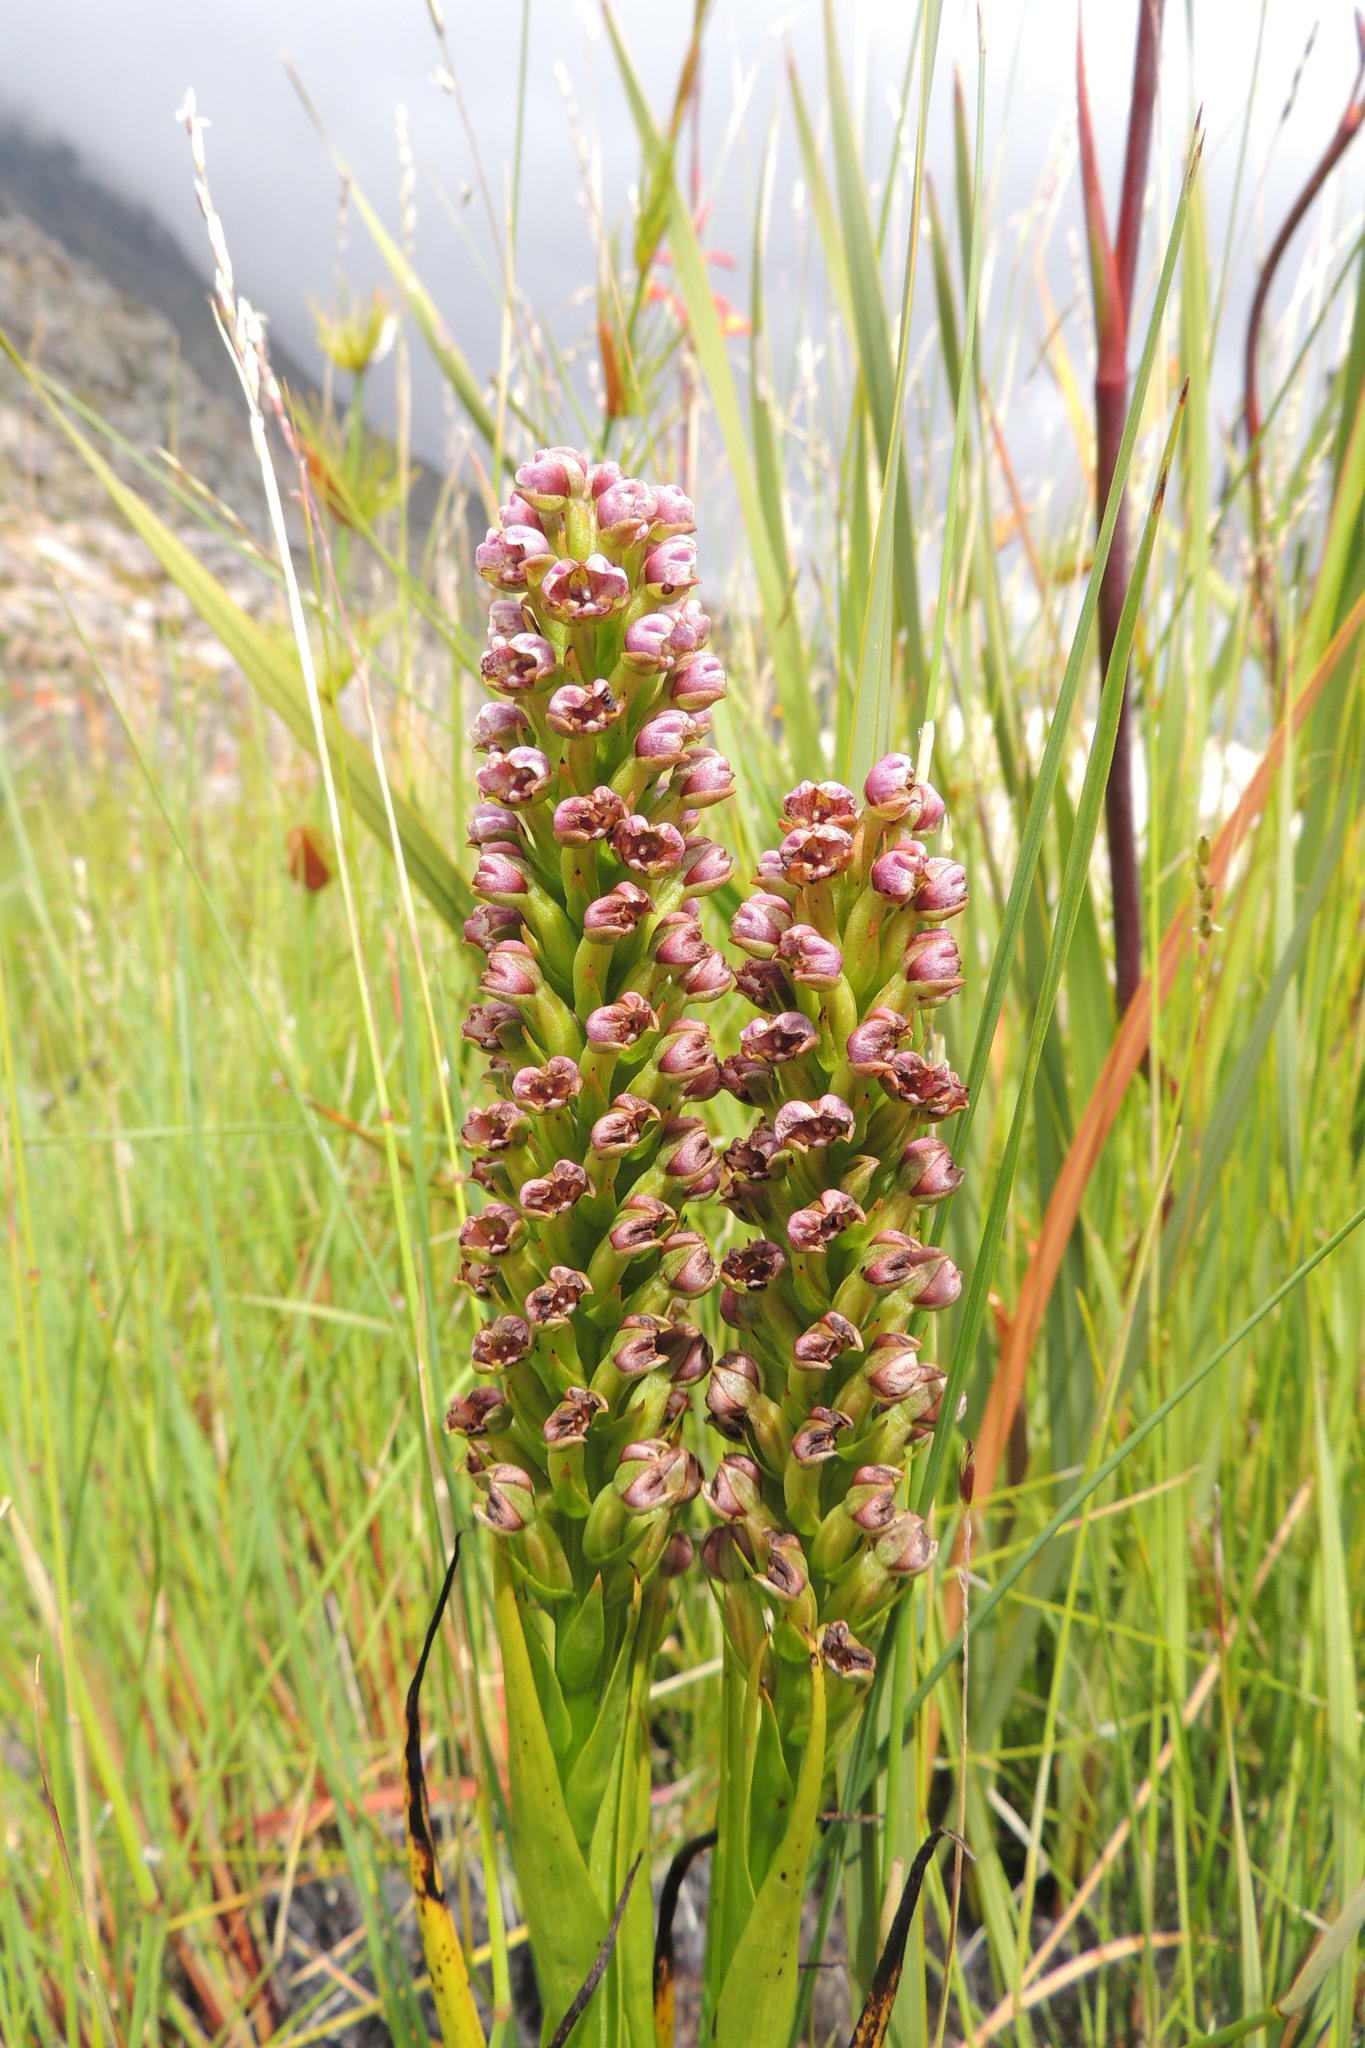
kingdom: Plantae
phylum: Tracheophyta
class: Liliopsida
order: Asparagales
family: Orchidaceae
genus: Evotella
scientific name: Evotella carnosa
